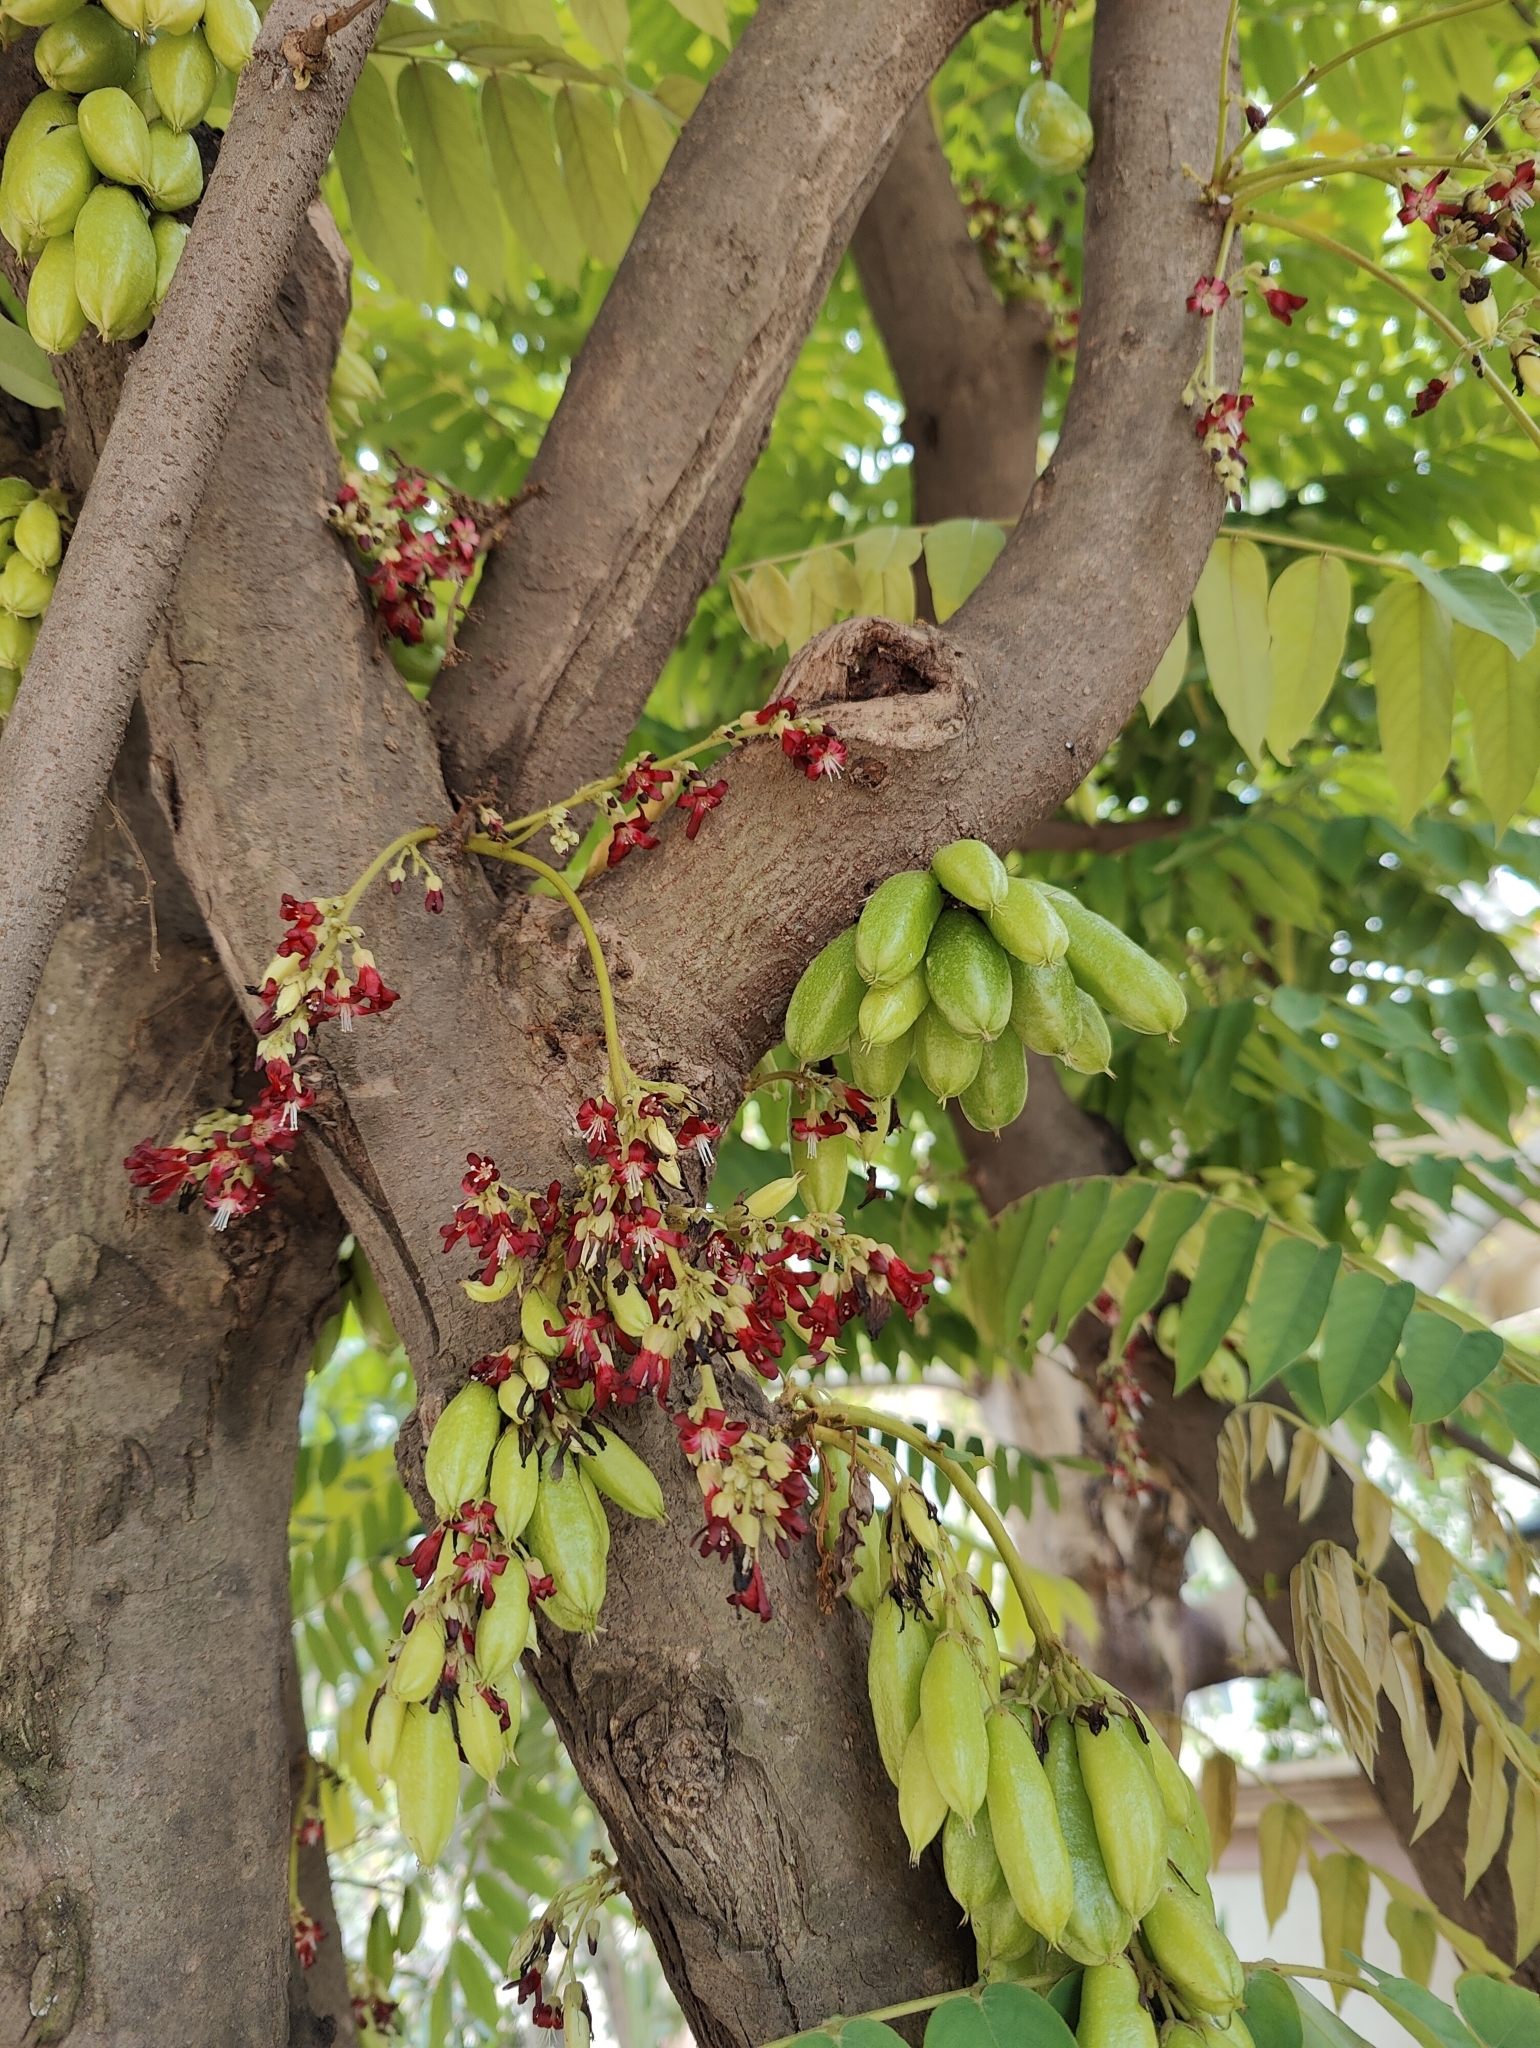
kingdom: Plantae
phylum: Tracheophyta
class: Magnoliopsida
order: Oxalidales
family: Oxalidaceae
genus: Averrhoa
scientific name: Averrhoa bilimbi
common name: Bilimbi
